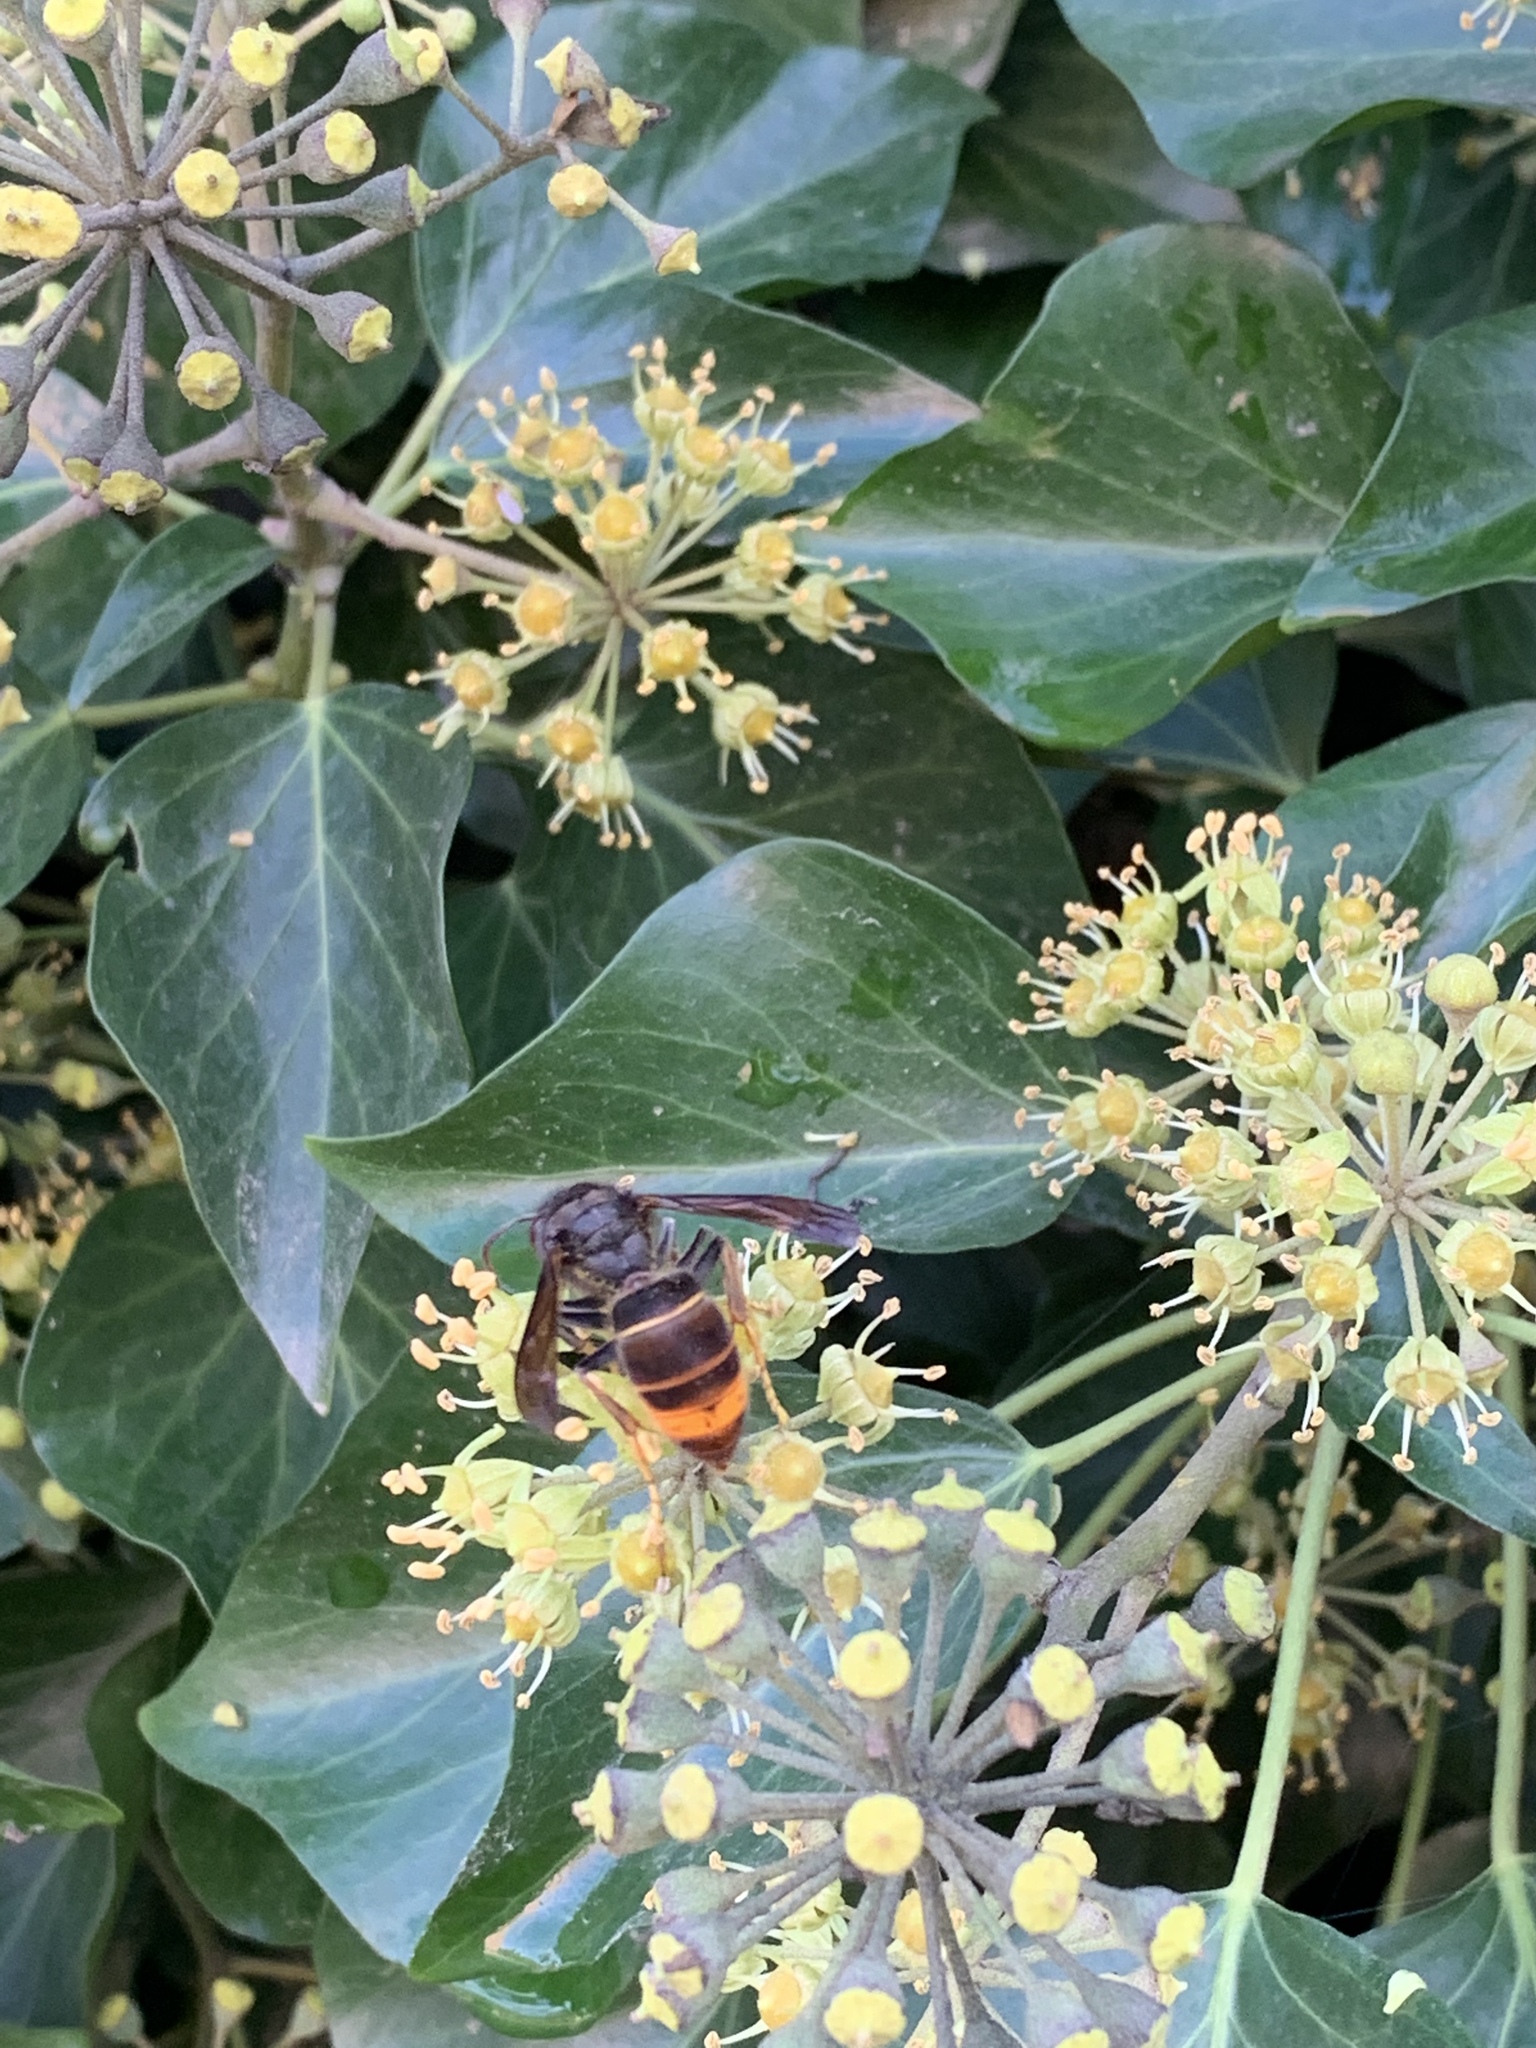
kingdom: Animalia
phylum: Arthropoda
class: Insecta
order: Hymenoptera
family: Vespidae
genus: Vespa
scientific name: Vespa velutina
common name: Asian hornet
